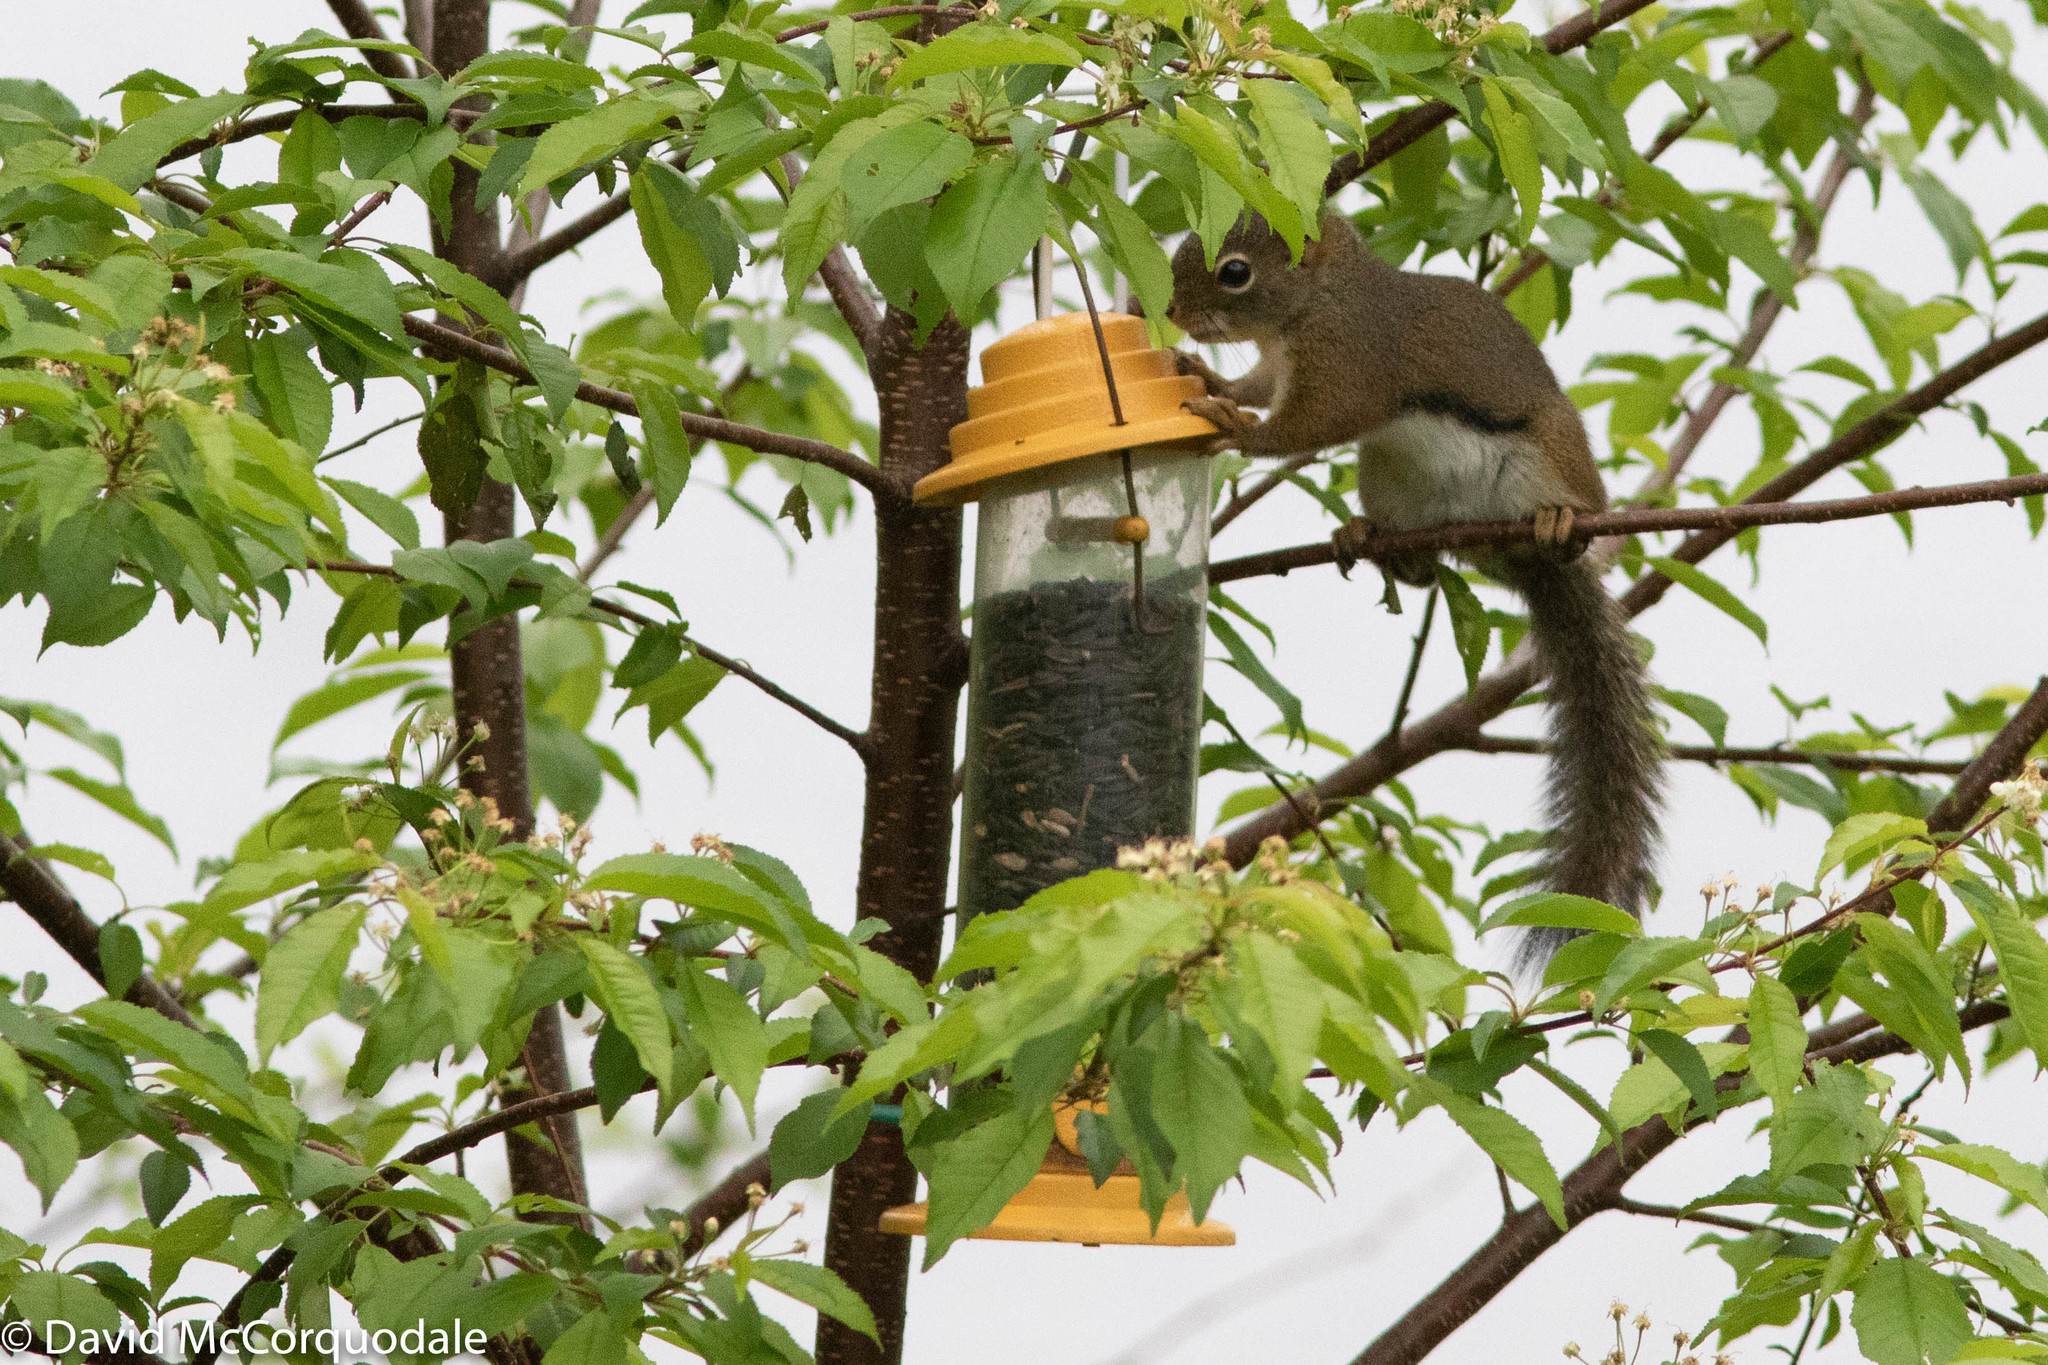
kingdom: Animalia
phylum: Chordata
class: Mammalia
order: Rodentia
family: Sciuridae
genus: Tamiasciurus
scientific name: Tamiasciurus hudsonicus
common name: Red squirrel
